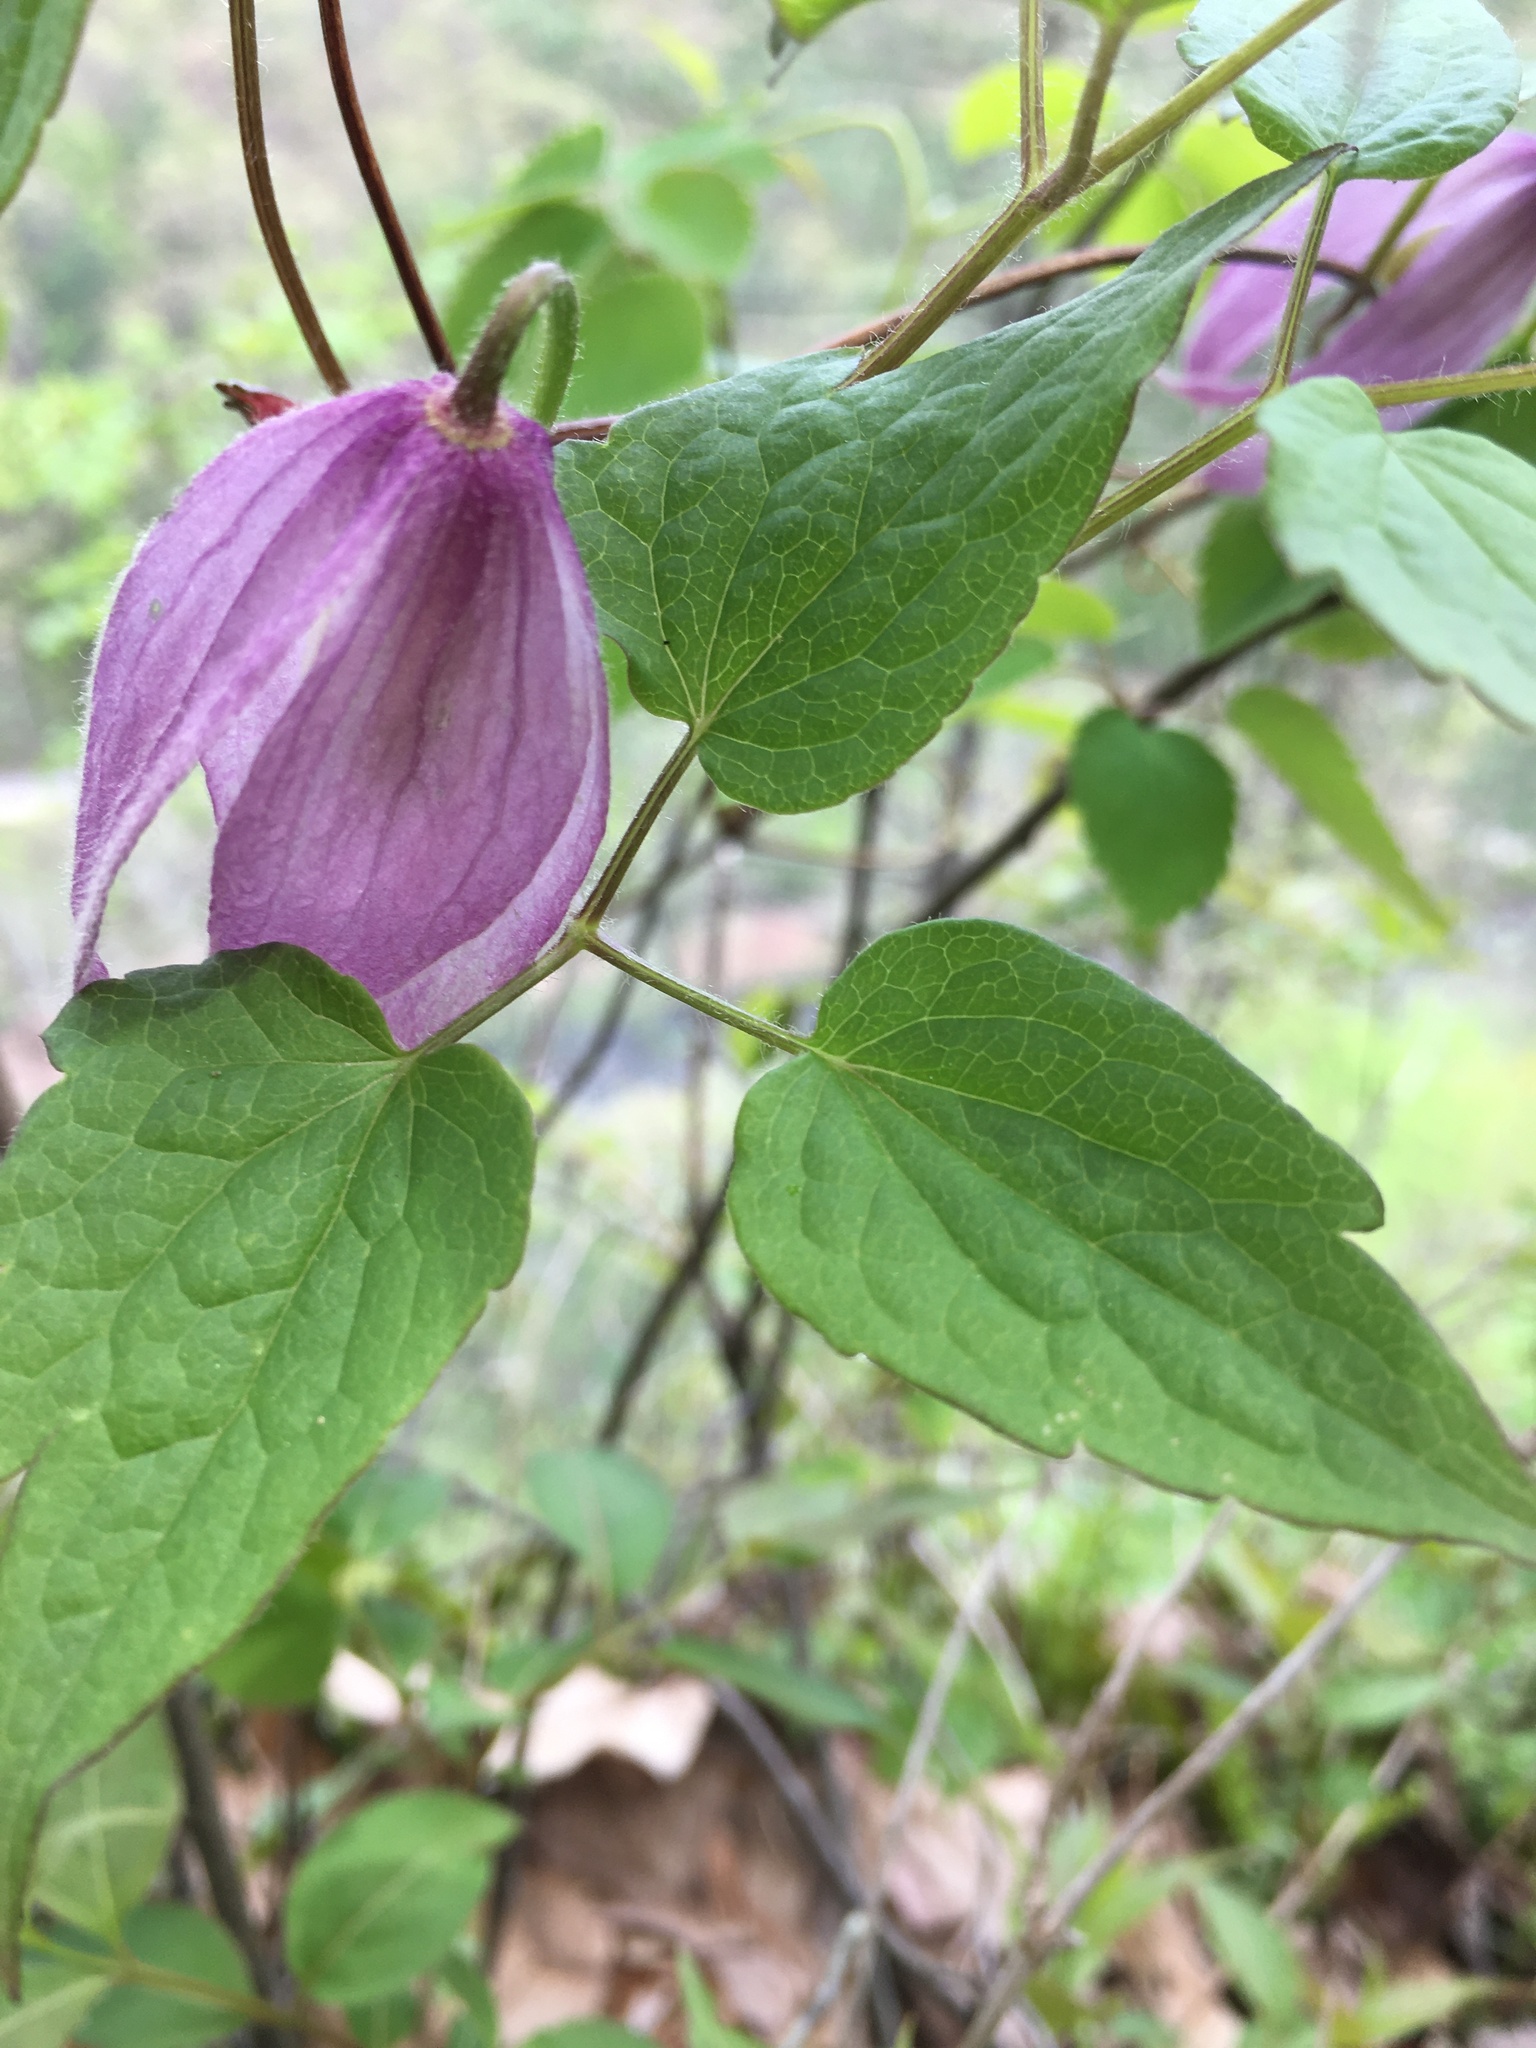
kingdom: Plantae
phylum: Tracheophyta
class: Magnoliopsida
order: Ranunculales
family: Ranunculaceae
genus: Clematis
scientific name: Clematis occidentalis
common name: Purple clematis
